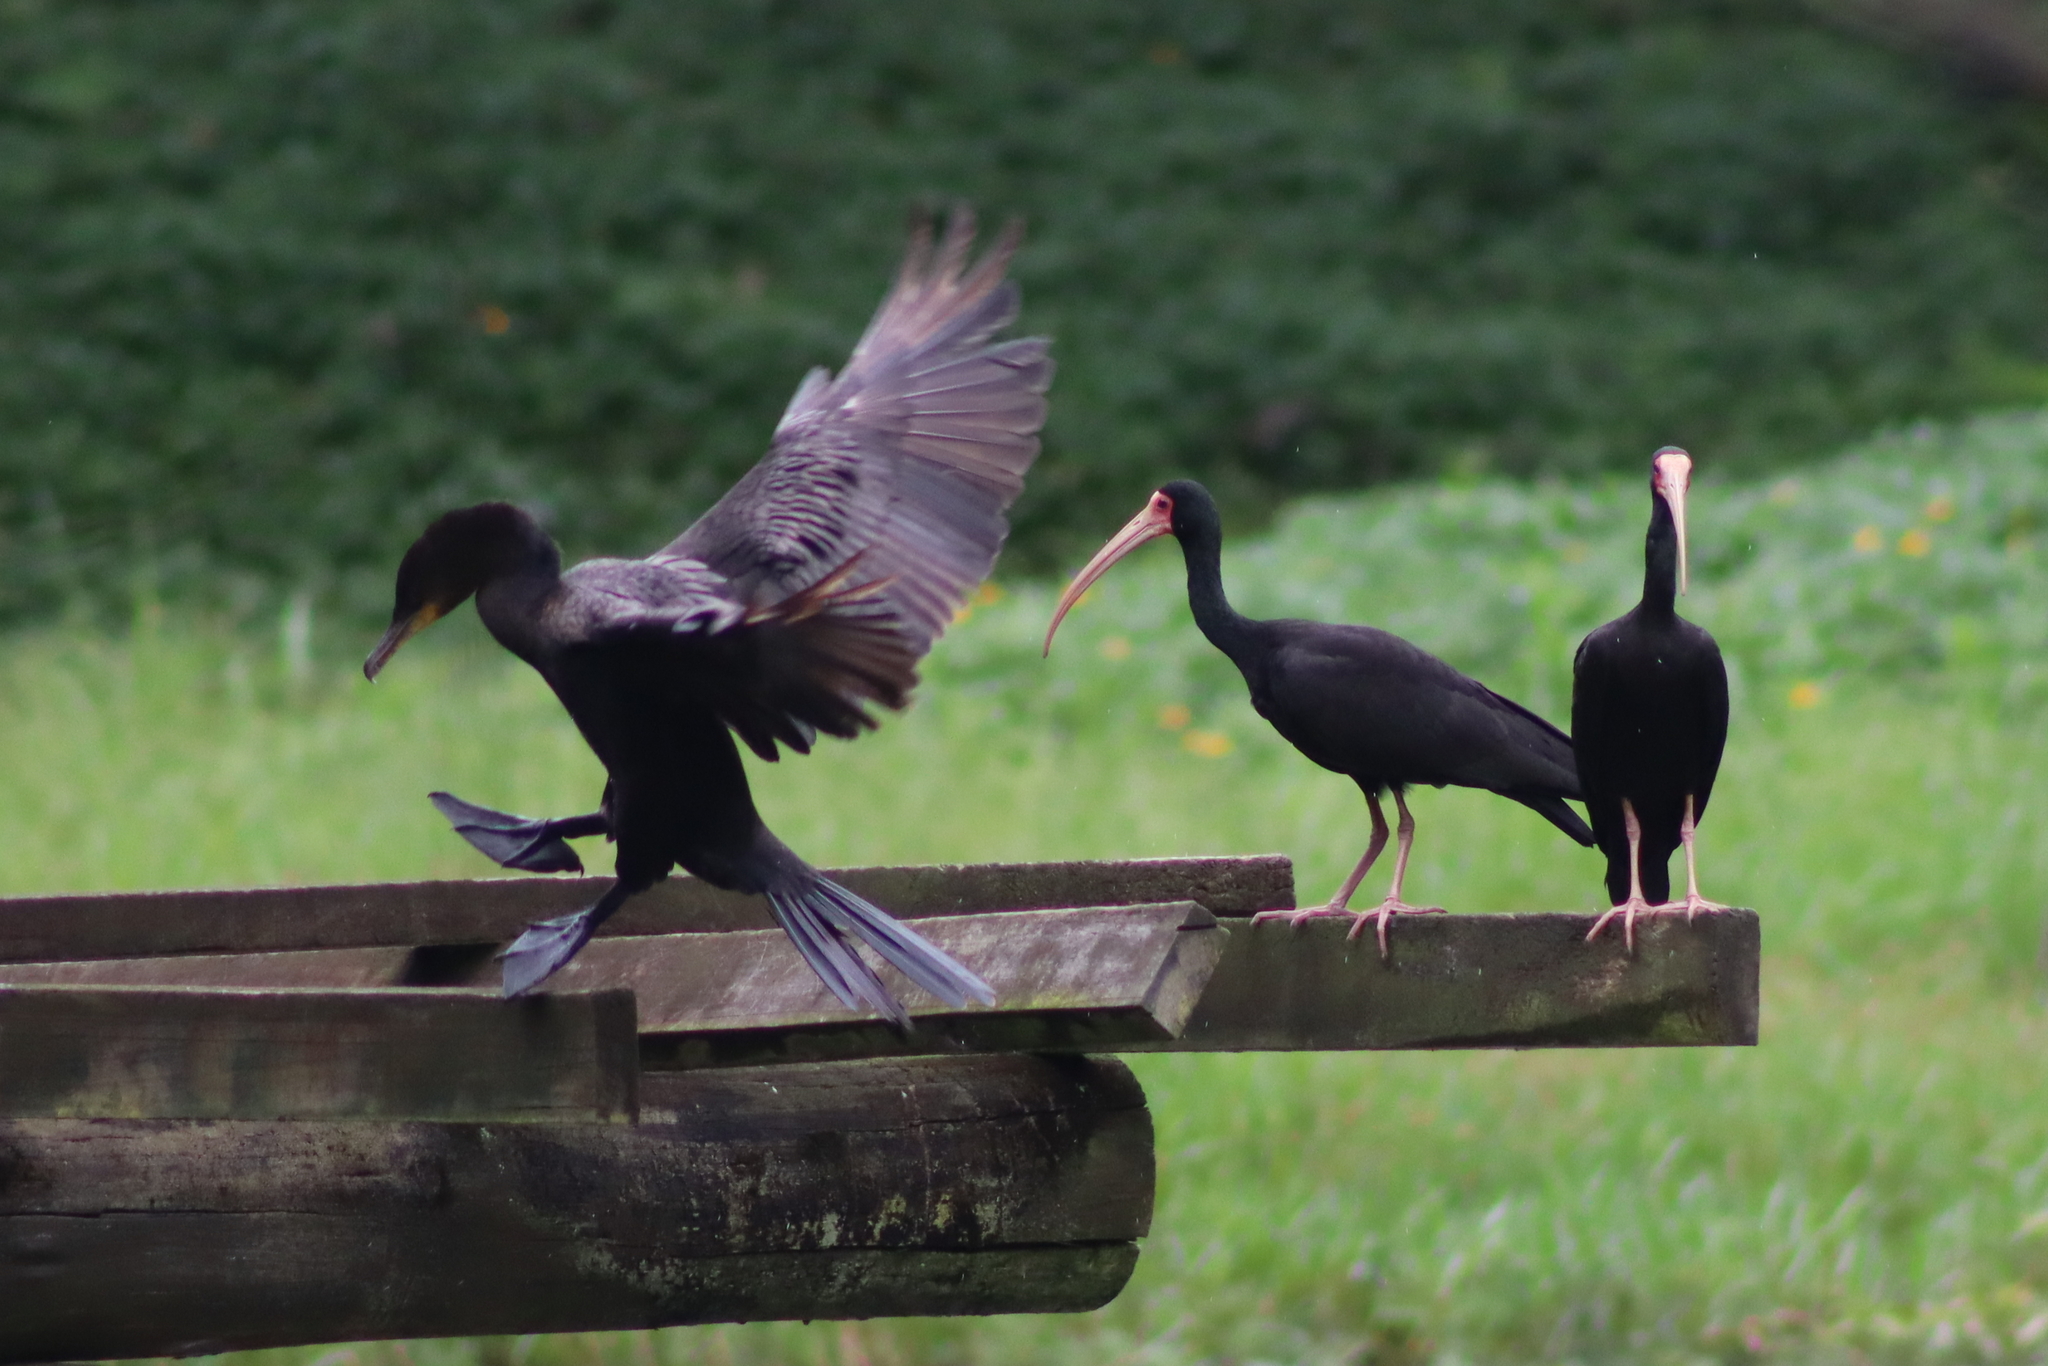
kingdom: Animalia
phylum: Chordata
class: Aves
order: Suliformes
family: Phalacrocoracidae
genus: Phalacrocorax
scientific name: Phalacrocorax brasilianus
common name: Neotropic cormorant
